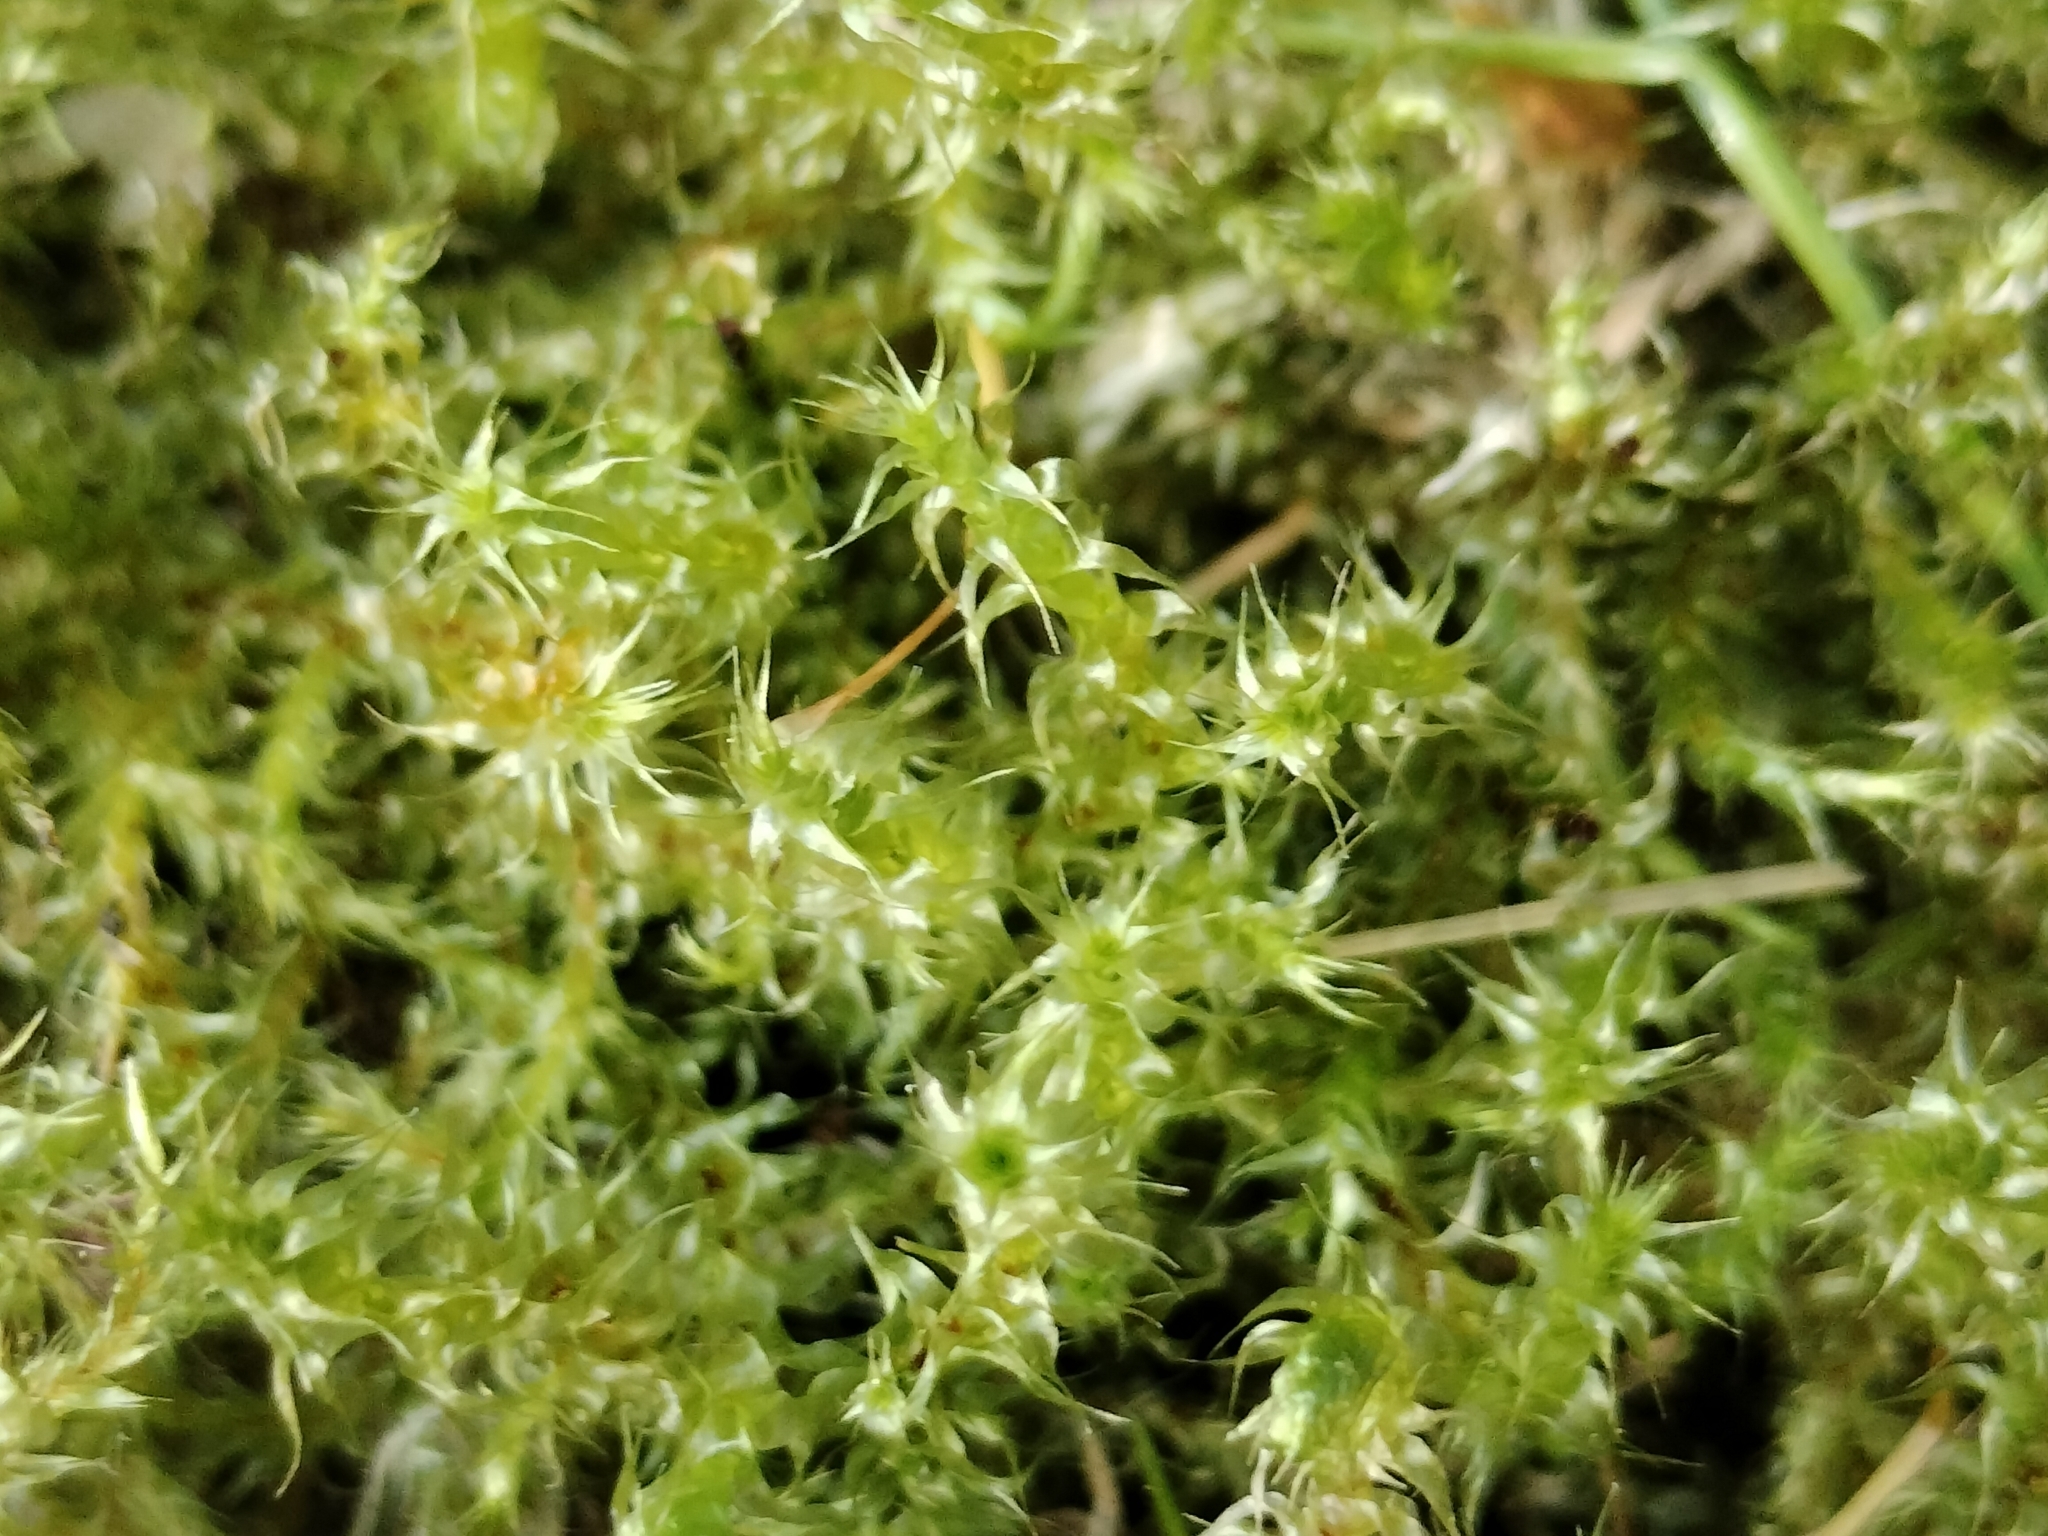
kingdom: Plantae
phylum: Bryophyta
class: Bryopsida
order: Hypnales
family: Hylocomiaceae
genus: Rhytidiadelphus
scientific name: Rhytidiadelphus squarrosus
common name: Springy turf-moss
